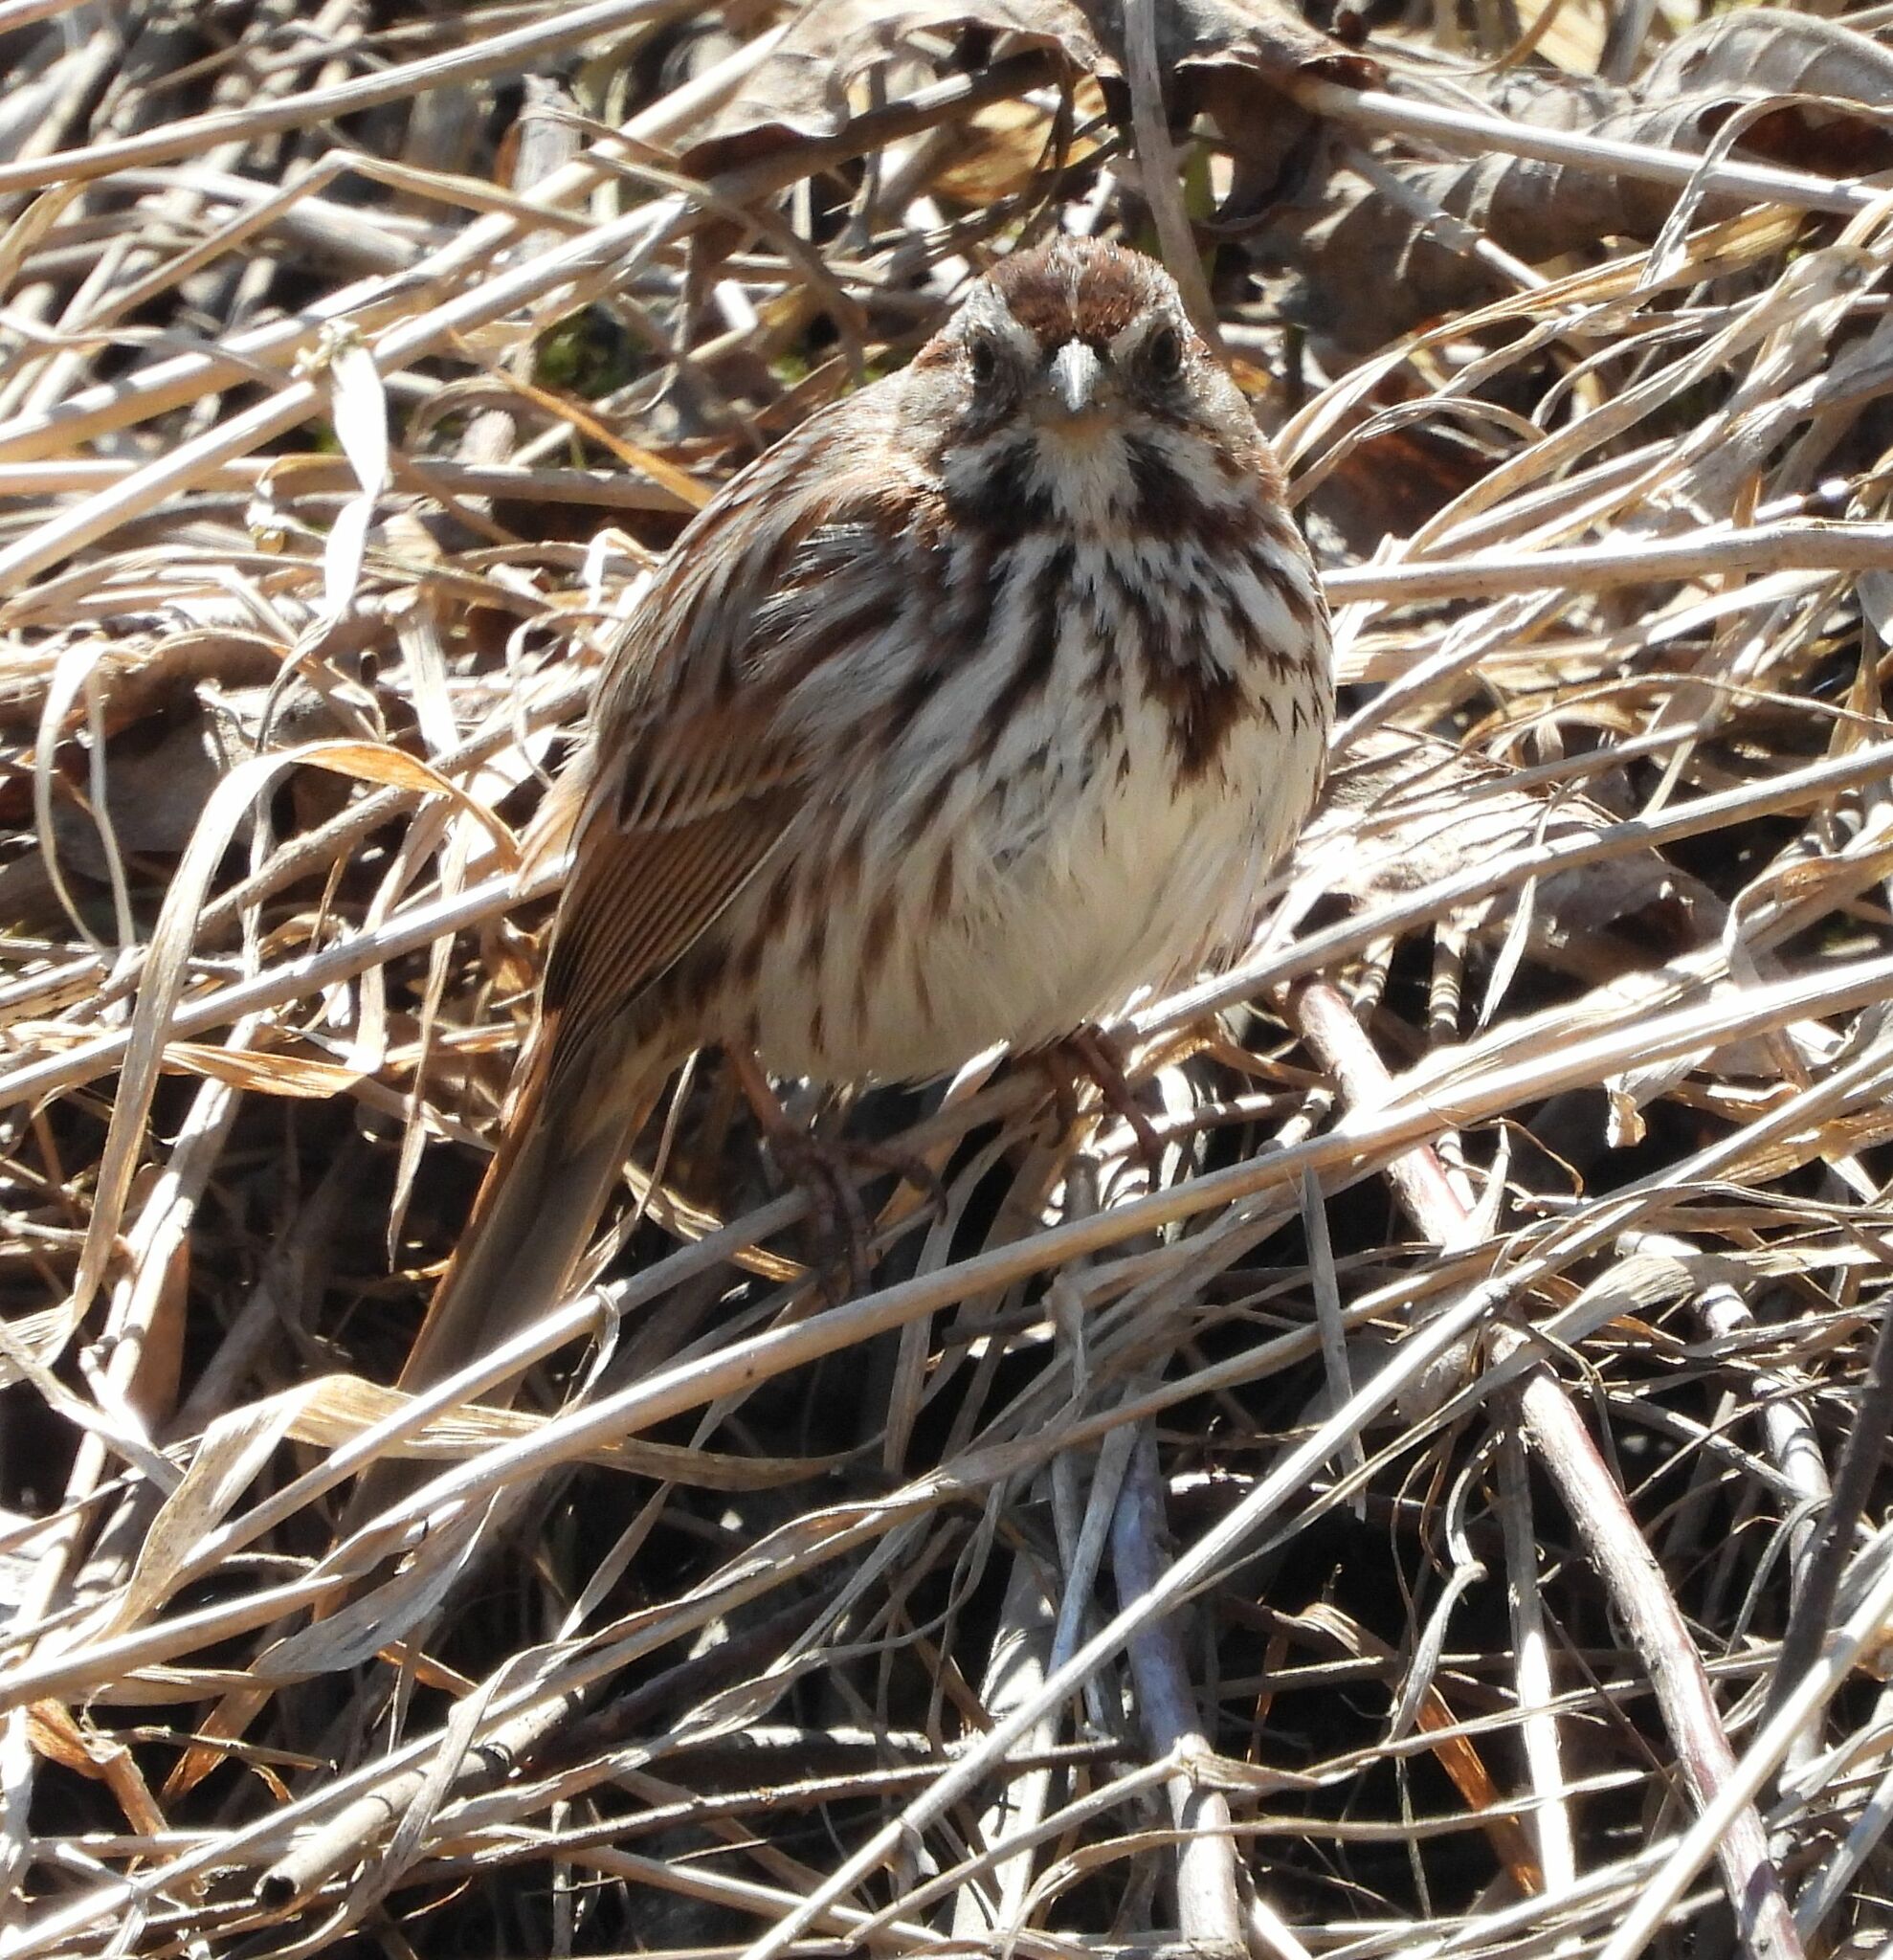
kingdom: Animalia
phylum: Chordata
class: Aves
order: Passeriformes
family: Passerellidae
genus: Melospiza
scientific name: Melospiza melodia
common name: Song sparrow
